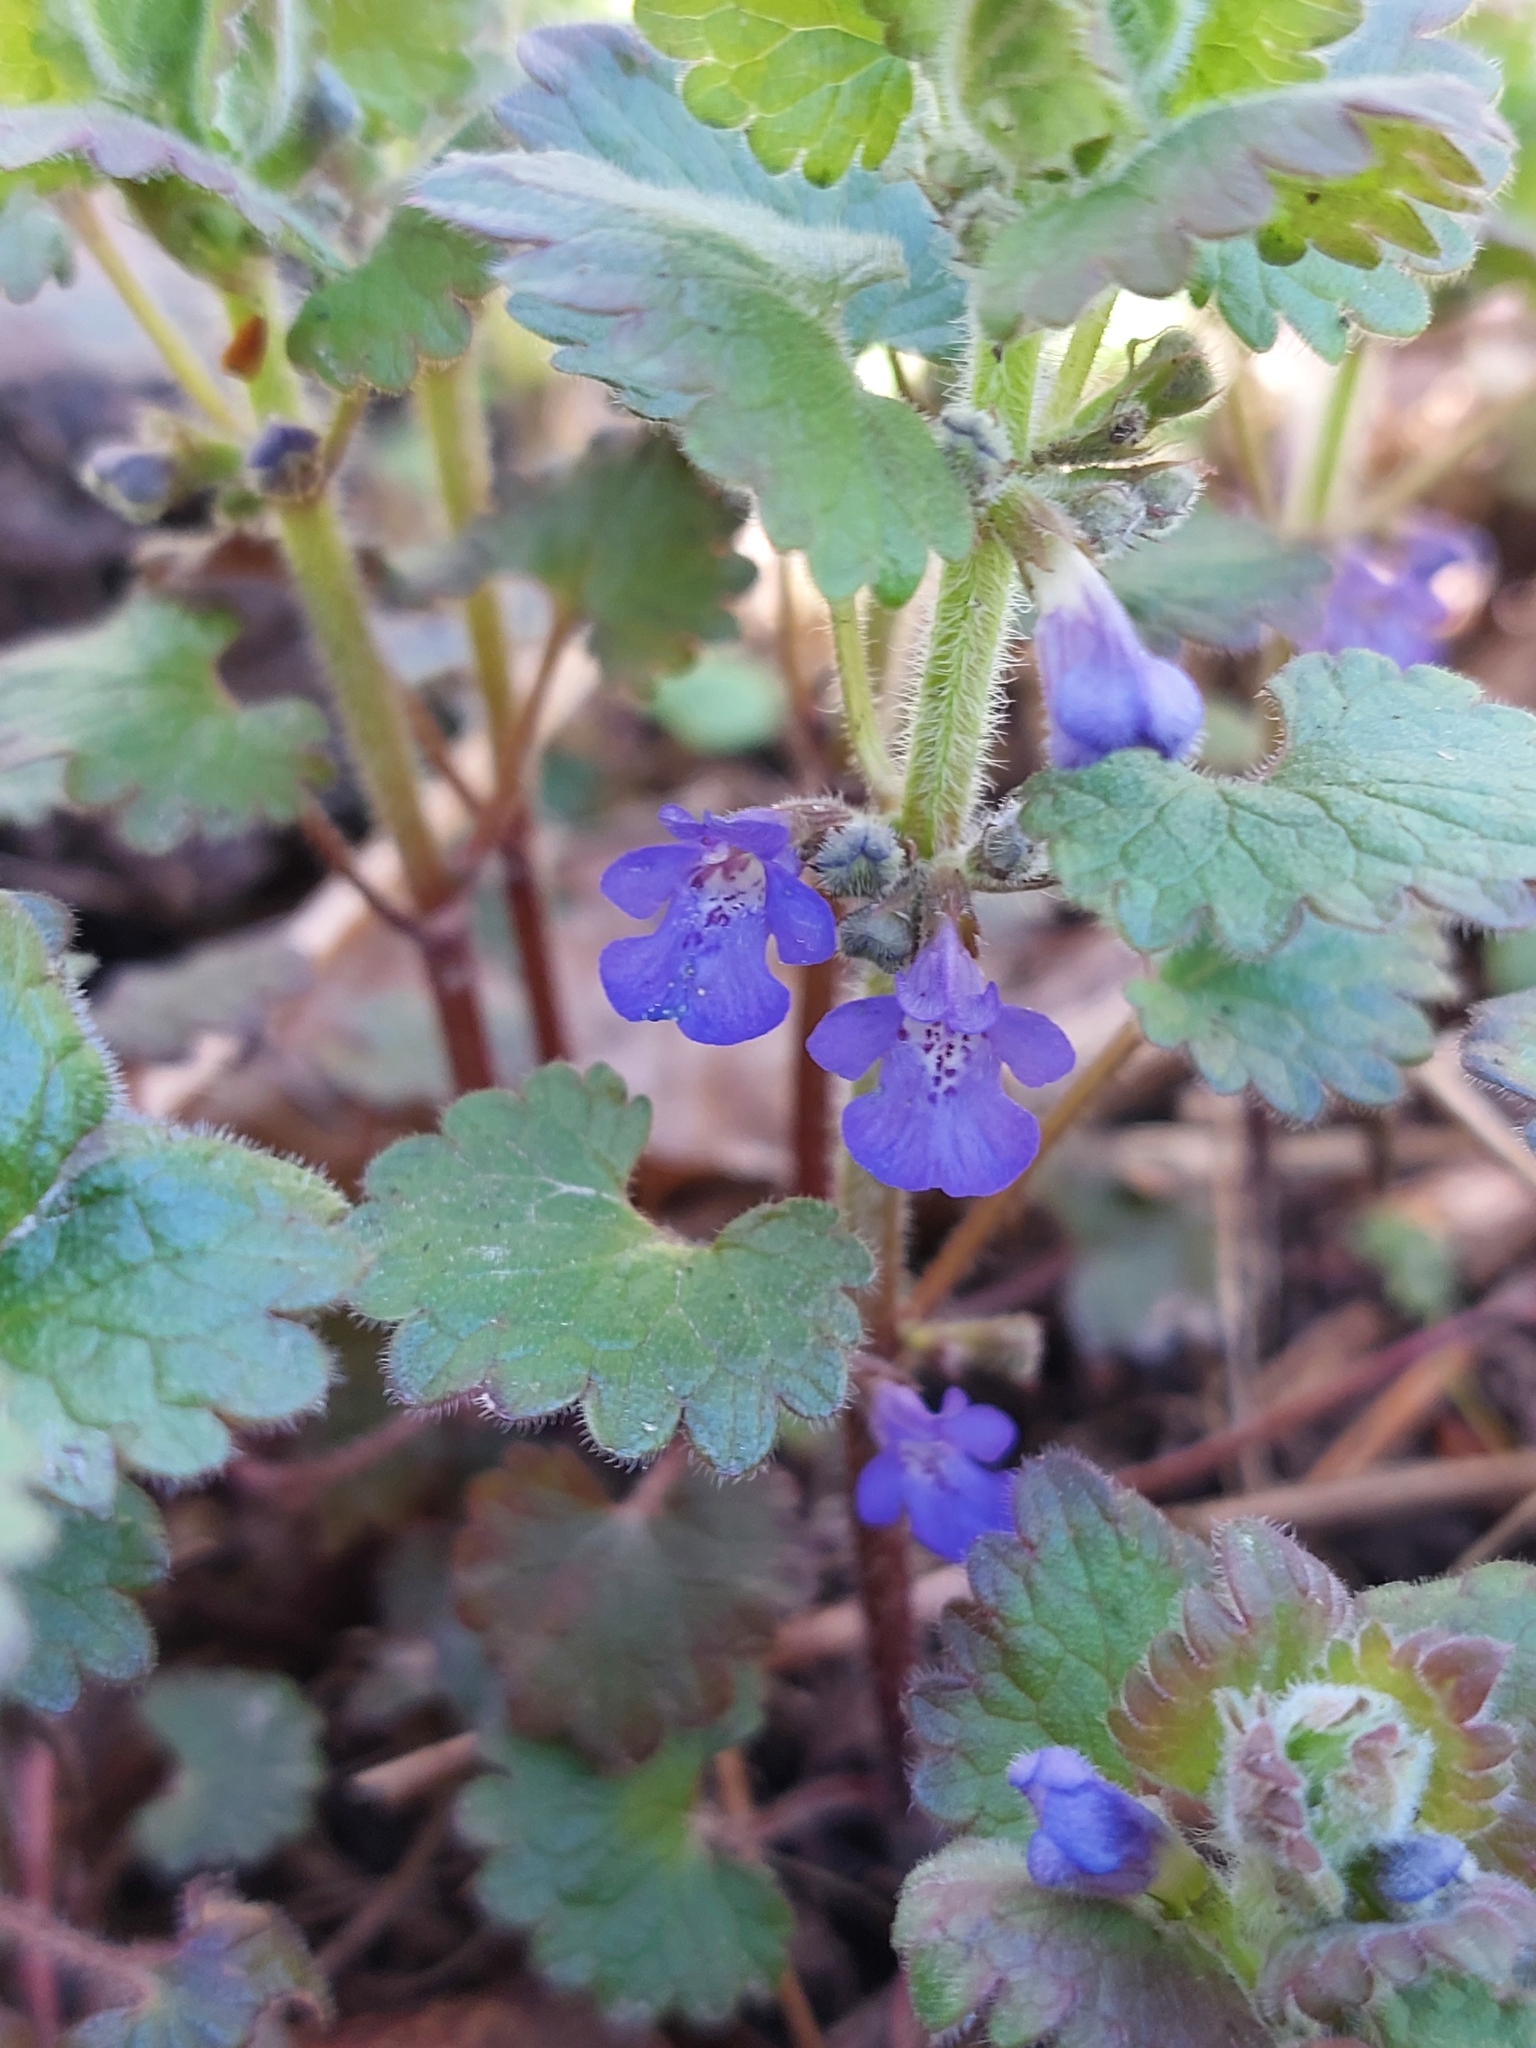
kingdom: Plantae
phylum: Tracheophyta
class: Magnoliopsida
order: Lamiales
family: Lamiaceae
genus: Glechoma
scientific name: Glechoma hirsuta
